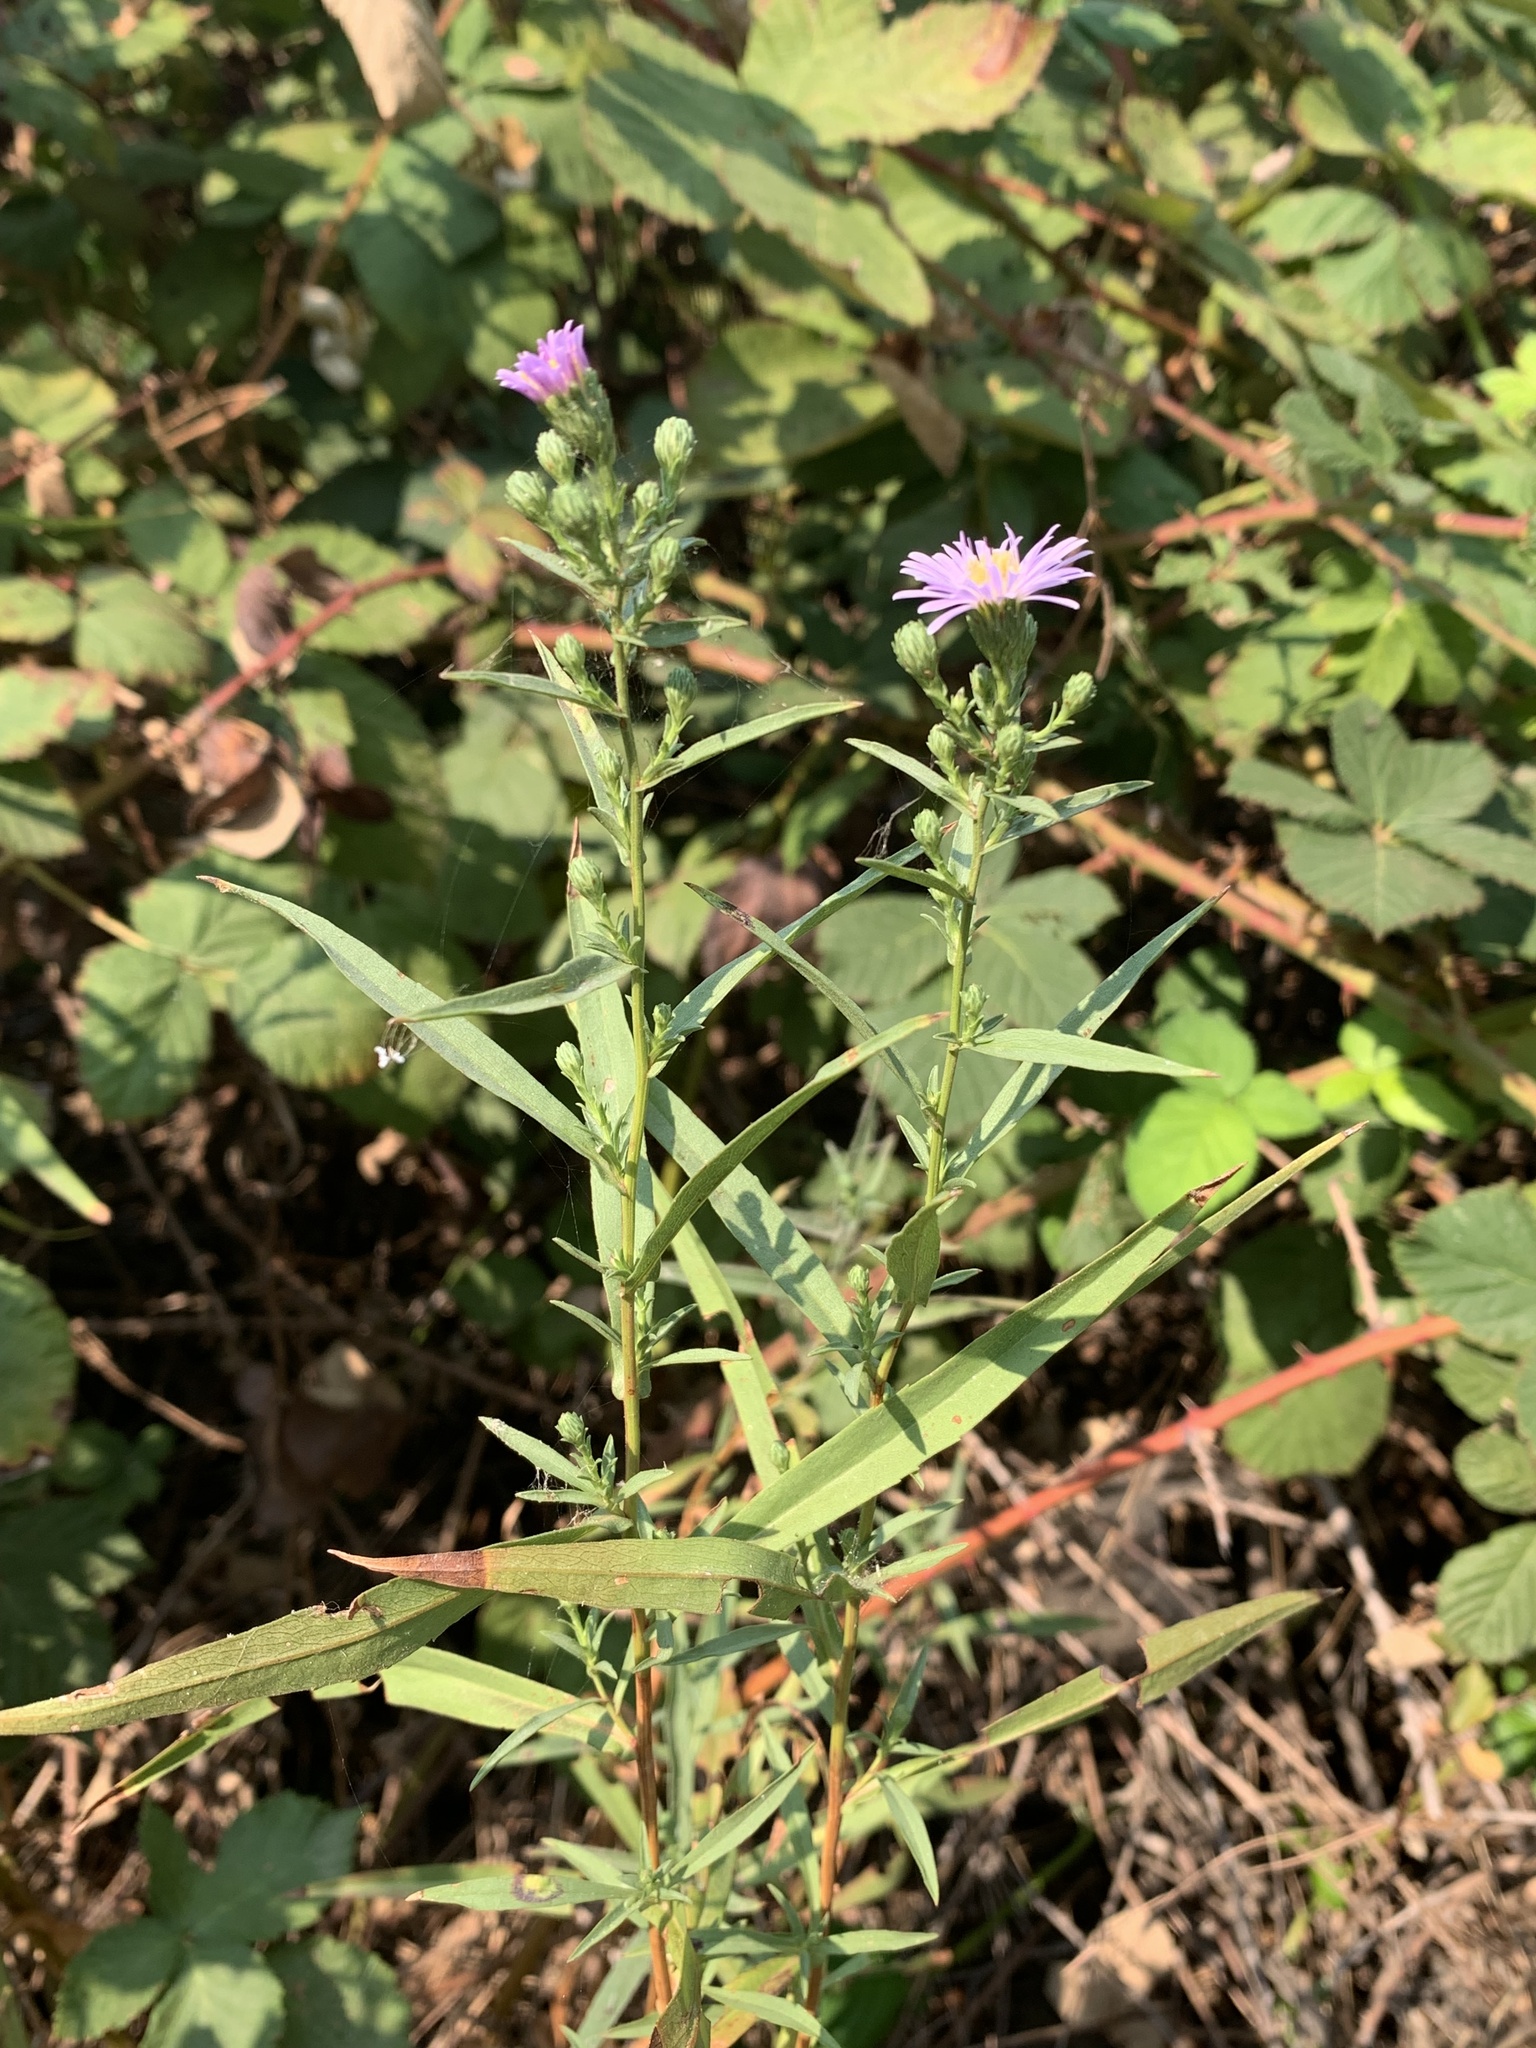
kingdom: Plantae
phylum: Tracheophyta
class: Magnoliopsida
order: Asterales
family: Asteraceae
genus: Symphyotrichum
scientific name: Symphyotrichum chilense
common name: Pacific aster
